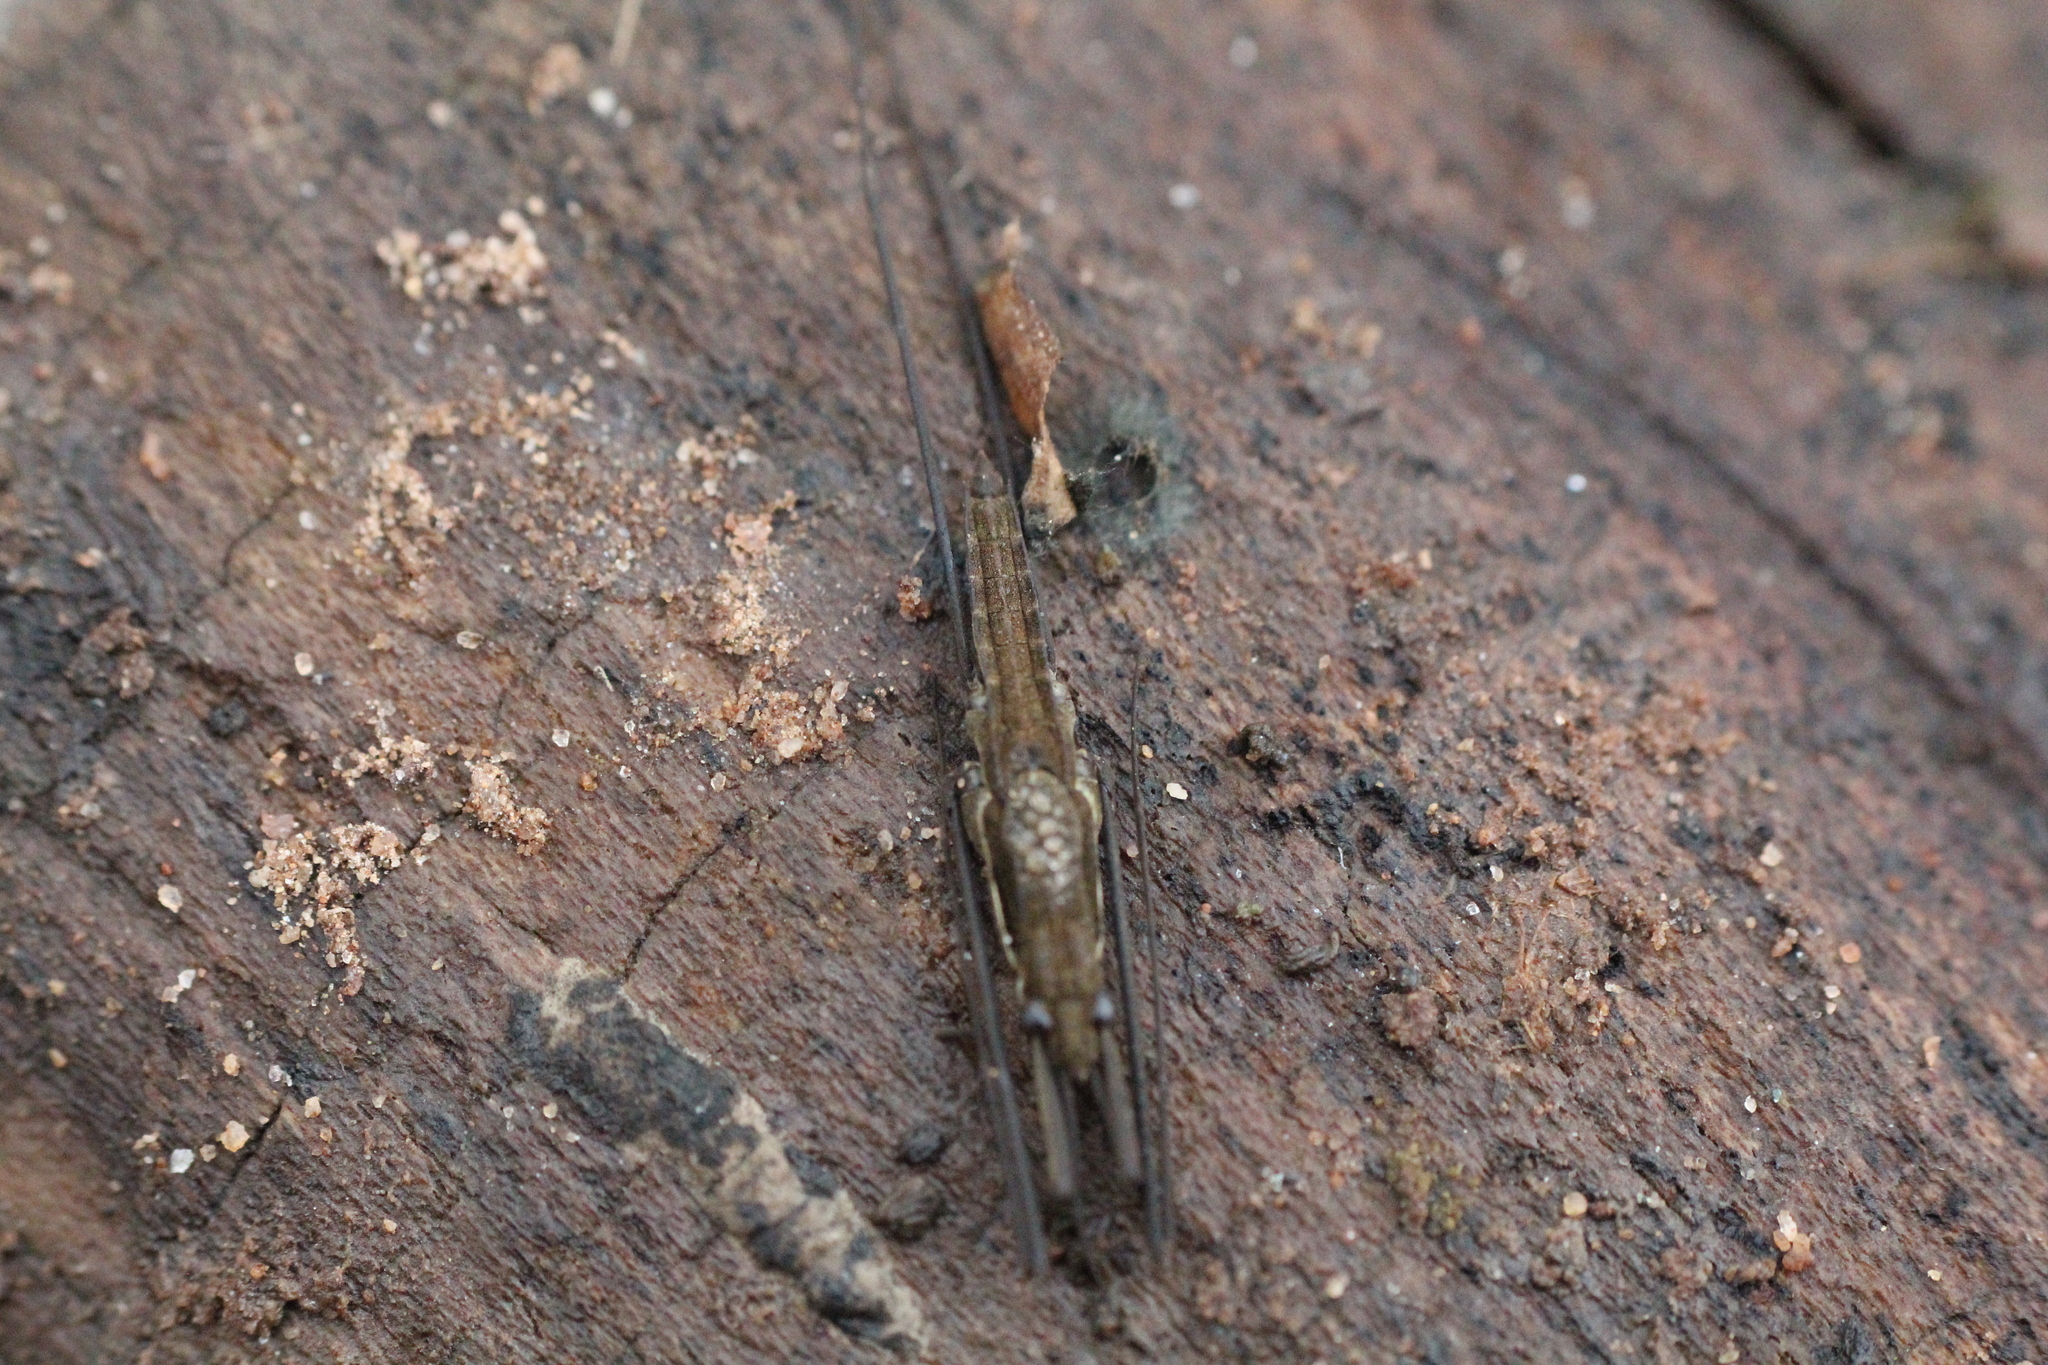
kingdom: Animalia
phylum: Arthropoda
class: Insecta
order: Hemiptera
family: Gerridae
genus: Aquarius
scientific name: Aquarius najas
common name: River skater
